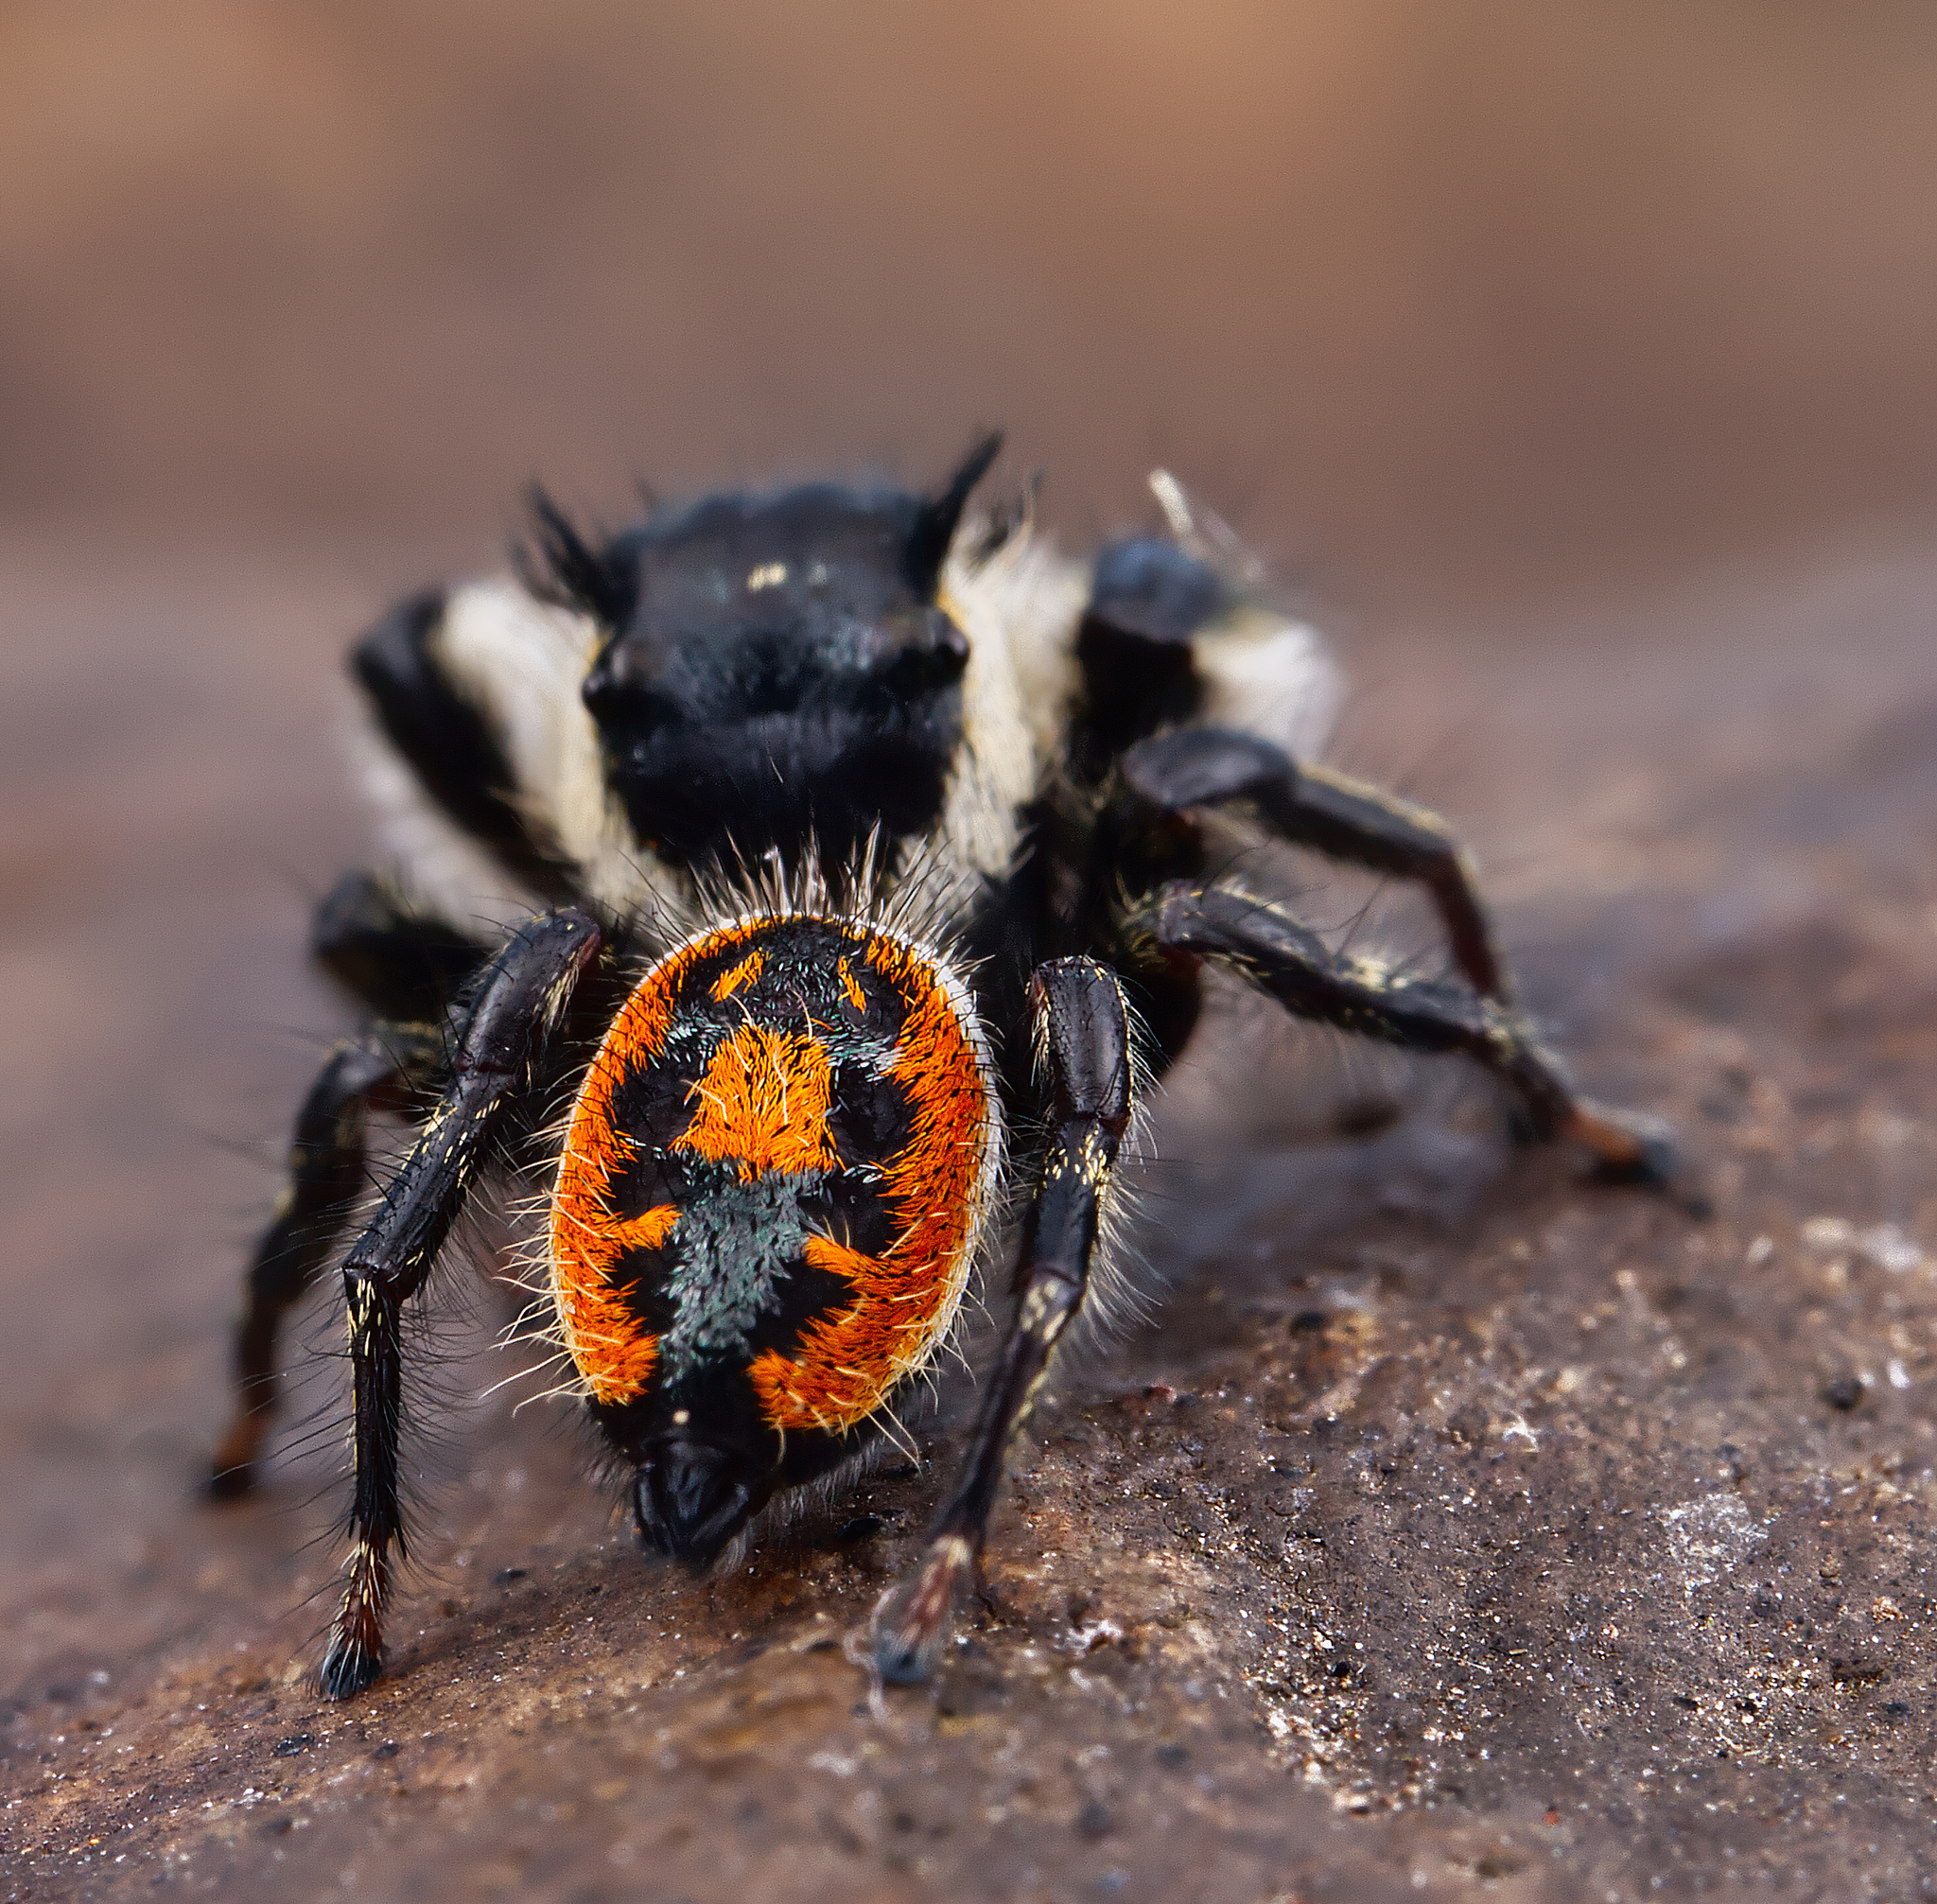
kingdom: Animalia
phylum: Arthropoda
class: Arachnida
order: Araneae
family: Salticidae
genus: Phidippus
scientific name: Phidippus insignarius
